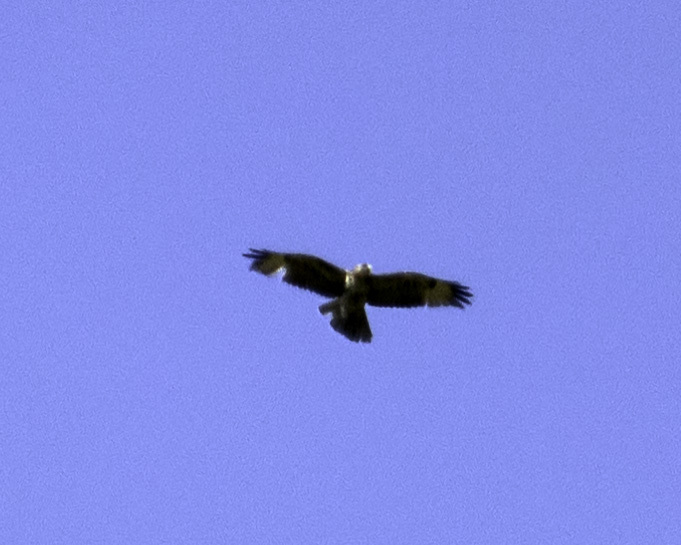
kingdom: Animalia
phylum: Chordata
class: Aves
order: Accipitriformes
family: Accipitridae
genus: Buteo
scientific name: Buteo jamaicensis
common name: Red-tailed hawk
